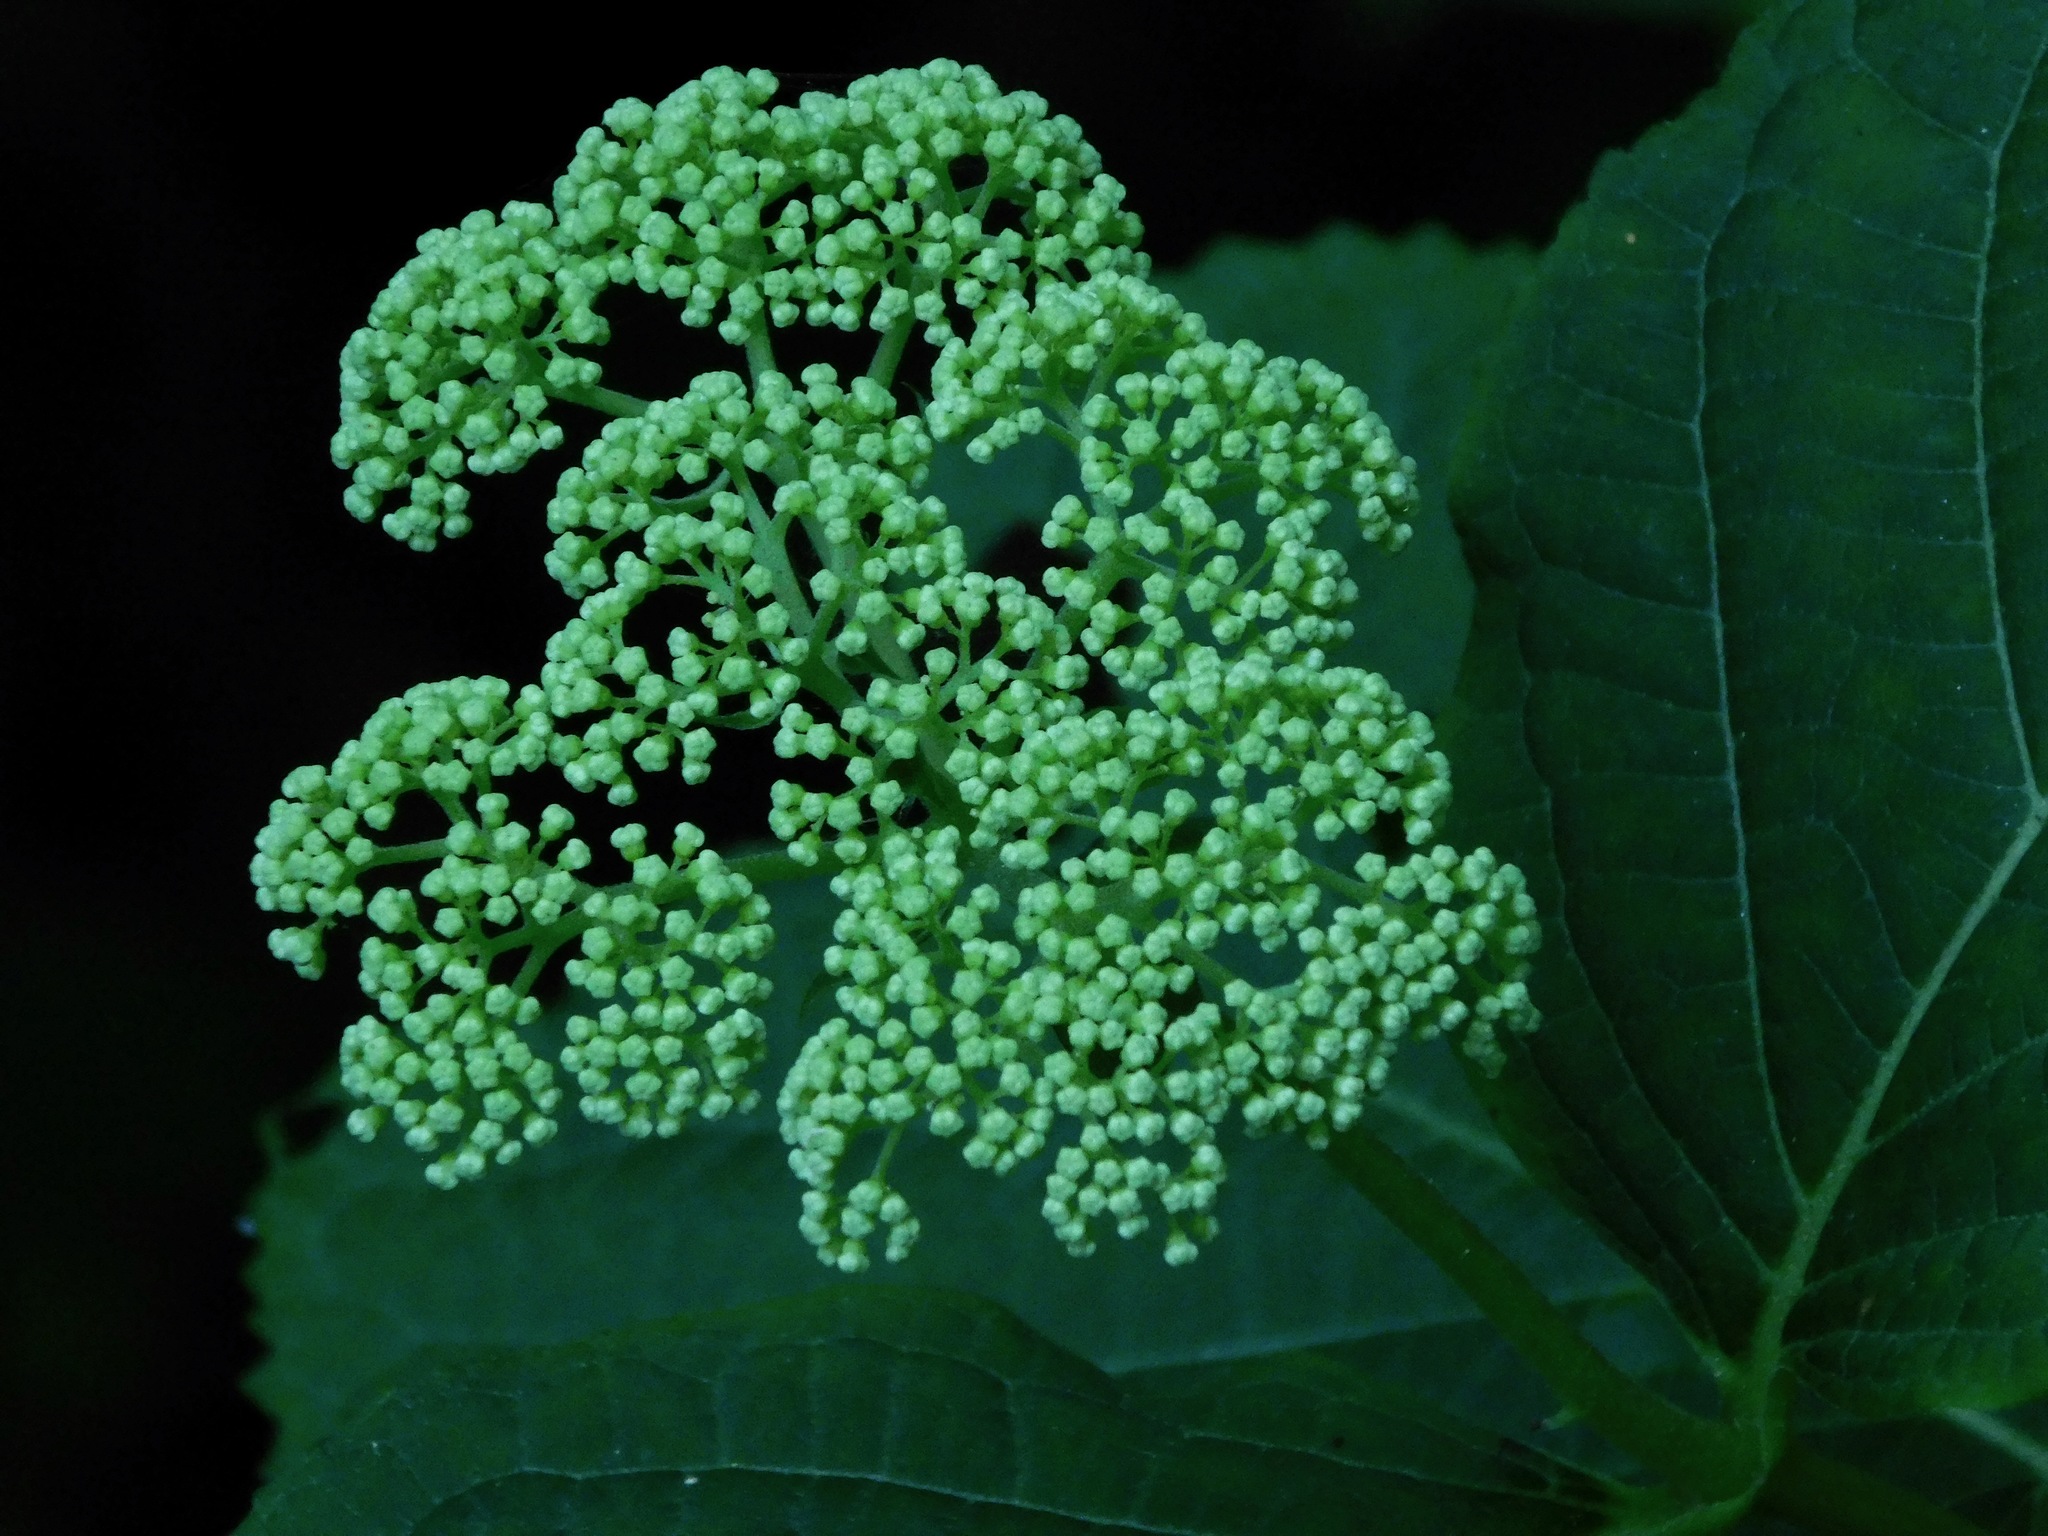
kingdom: Plantae
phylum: Tracheophyta
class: Magnoliopsida
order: Cornales
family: Hydrangeaceae
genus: Hydrangea
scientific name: Hydrangea arborescens
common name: Sevenbark
